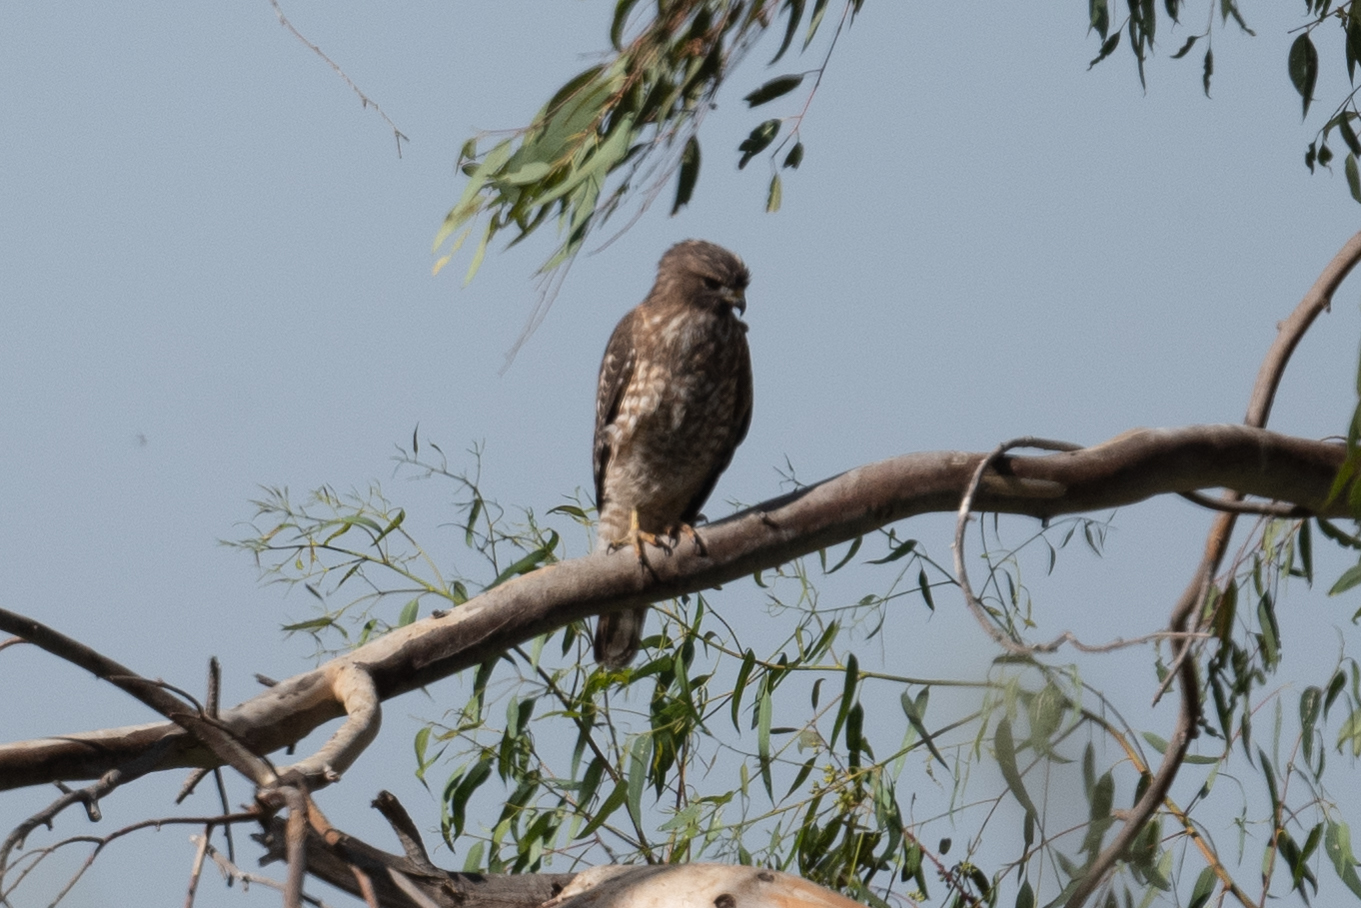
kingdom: Animalia
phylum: Chordata
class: Aves
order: Accipitriformes
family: Accipitridae
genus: Buteo
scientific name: Buteo lineatus
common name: Red-shouldered hawk
